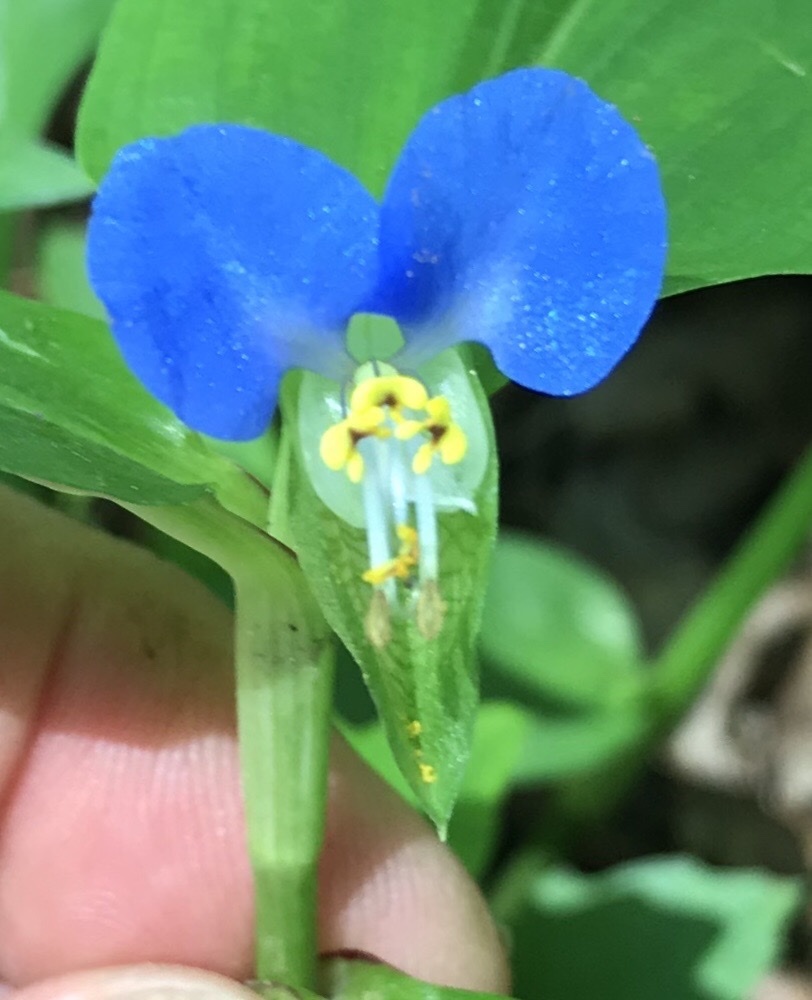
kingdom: Plantae
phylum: Tracheophyta
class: Liliopsida
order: Commelinales
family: Commelinaceae
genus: Commelina
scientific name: Commelina communis
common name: Asiatic dayflower
